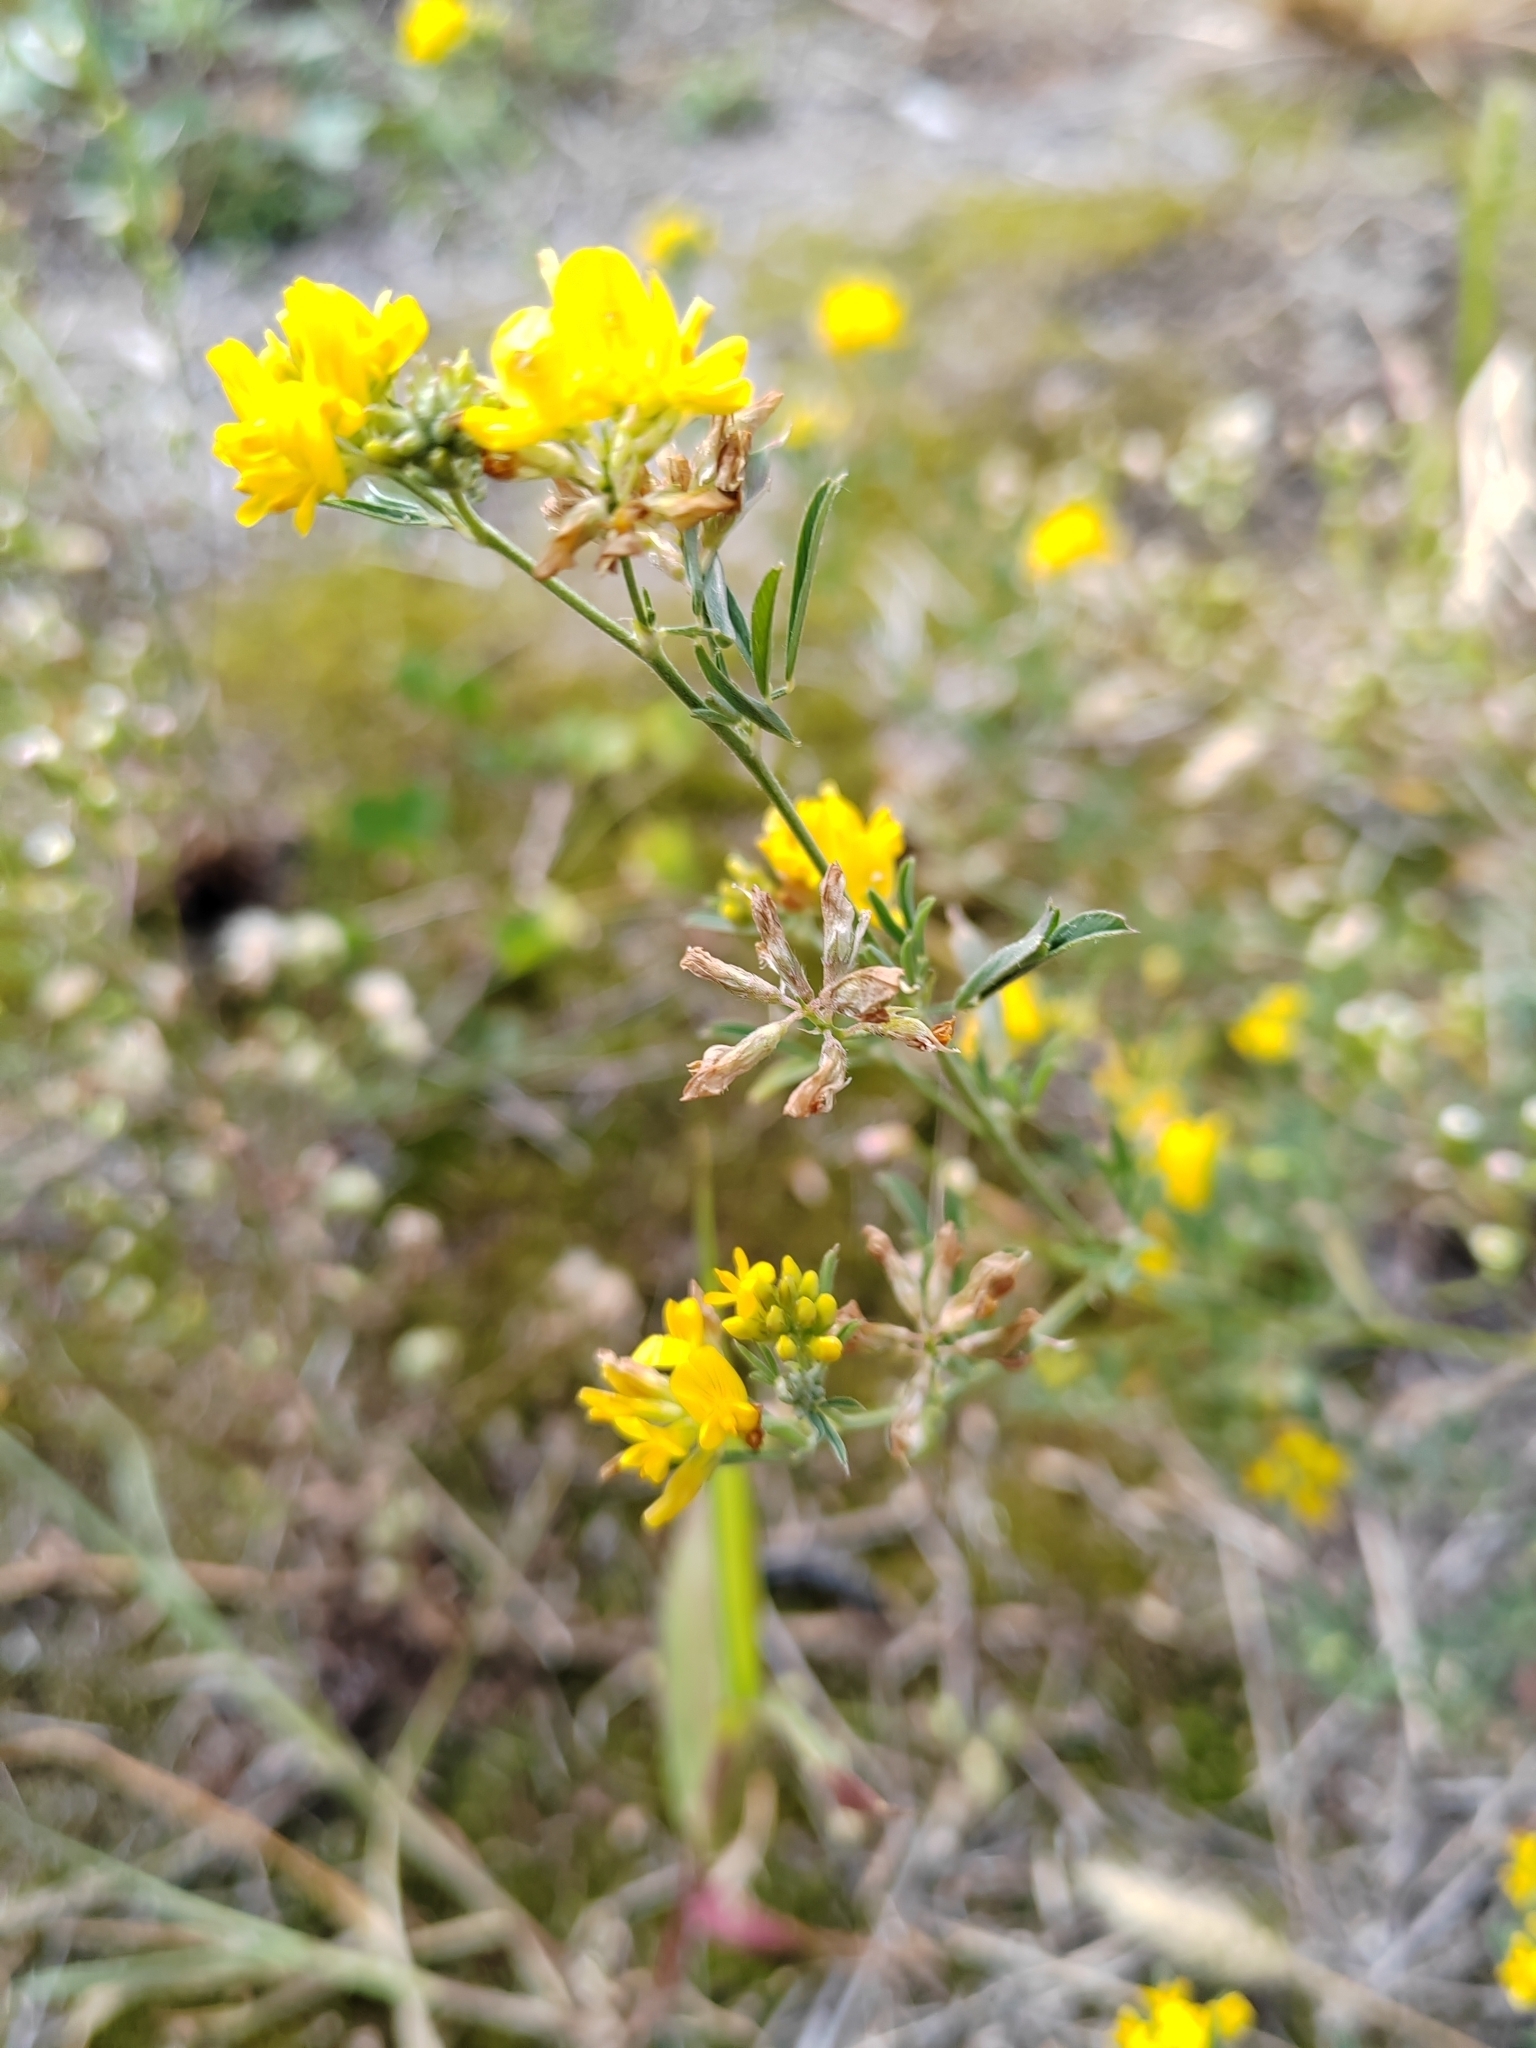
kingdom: Plantae
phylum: Tracheophyta
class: Magnoliopsida
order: Fabales
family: Fabaceae
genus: Medicago
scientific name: Medicago falcata
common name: Sickle medick
